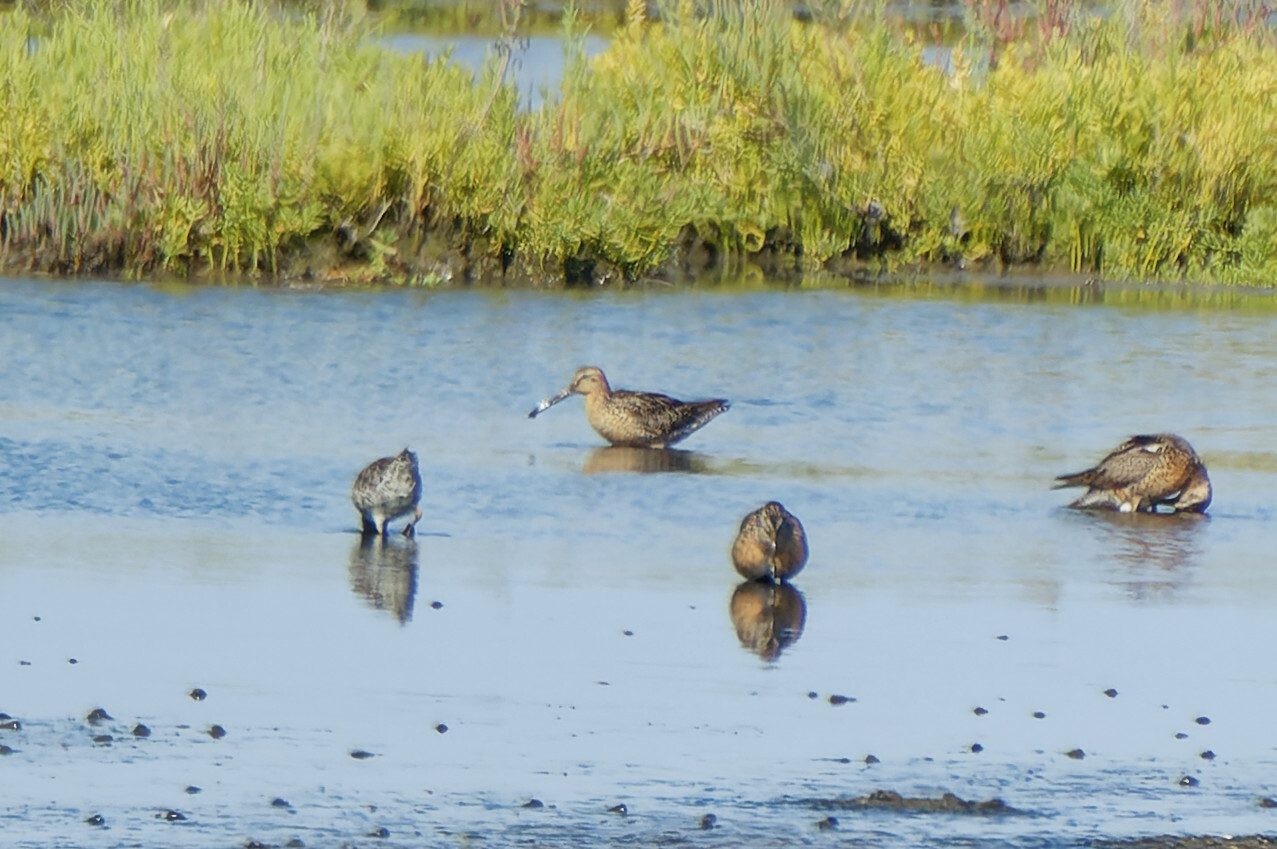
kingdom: Animalia
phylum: Chordata
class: Aves
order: Charadriiformes
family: Scolopacidae
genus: Limnodromus
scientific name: Limnodromus
